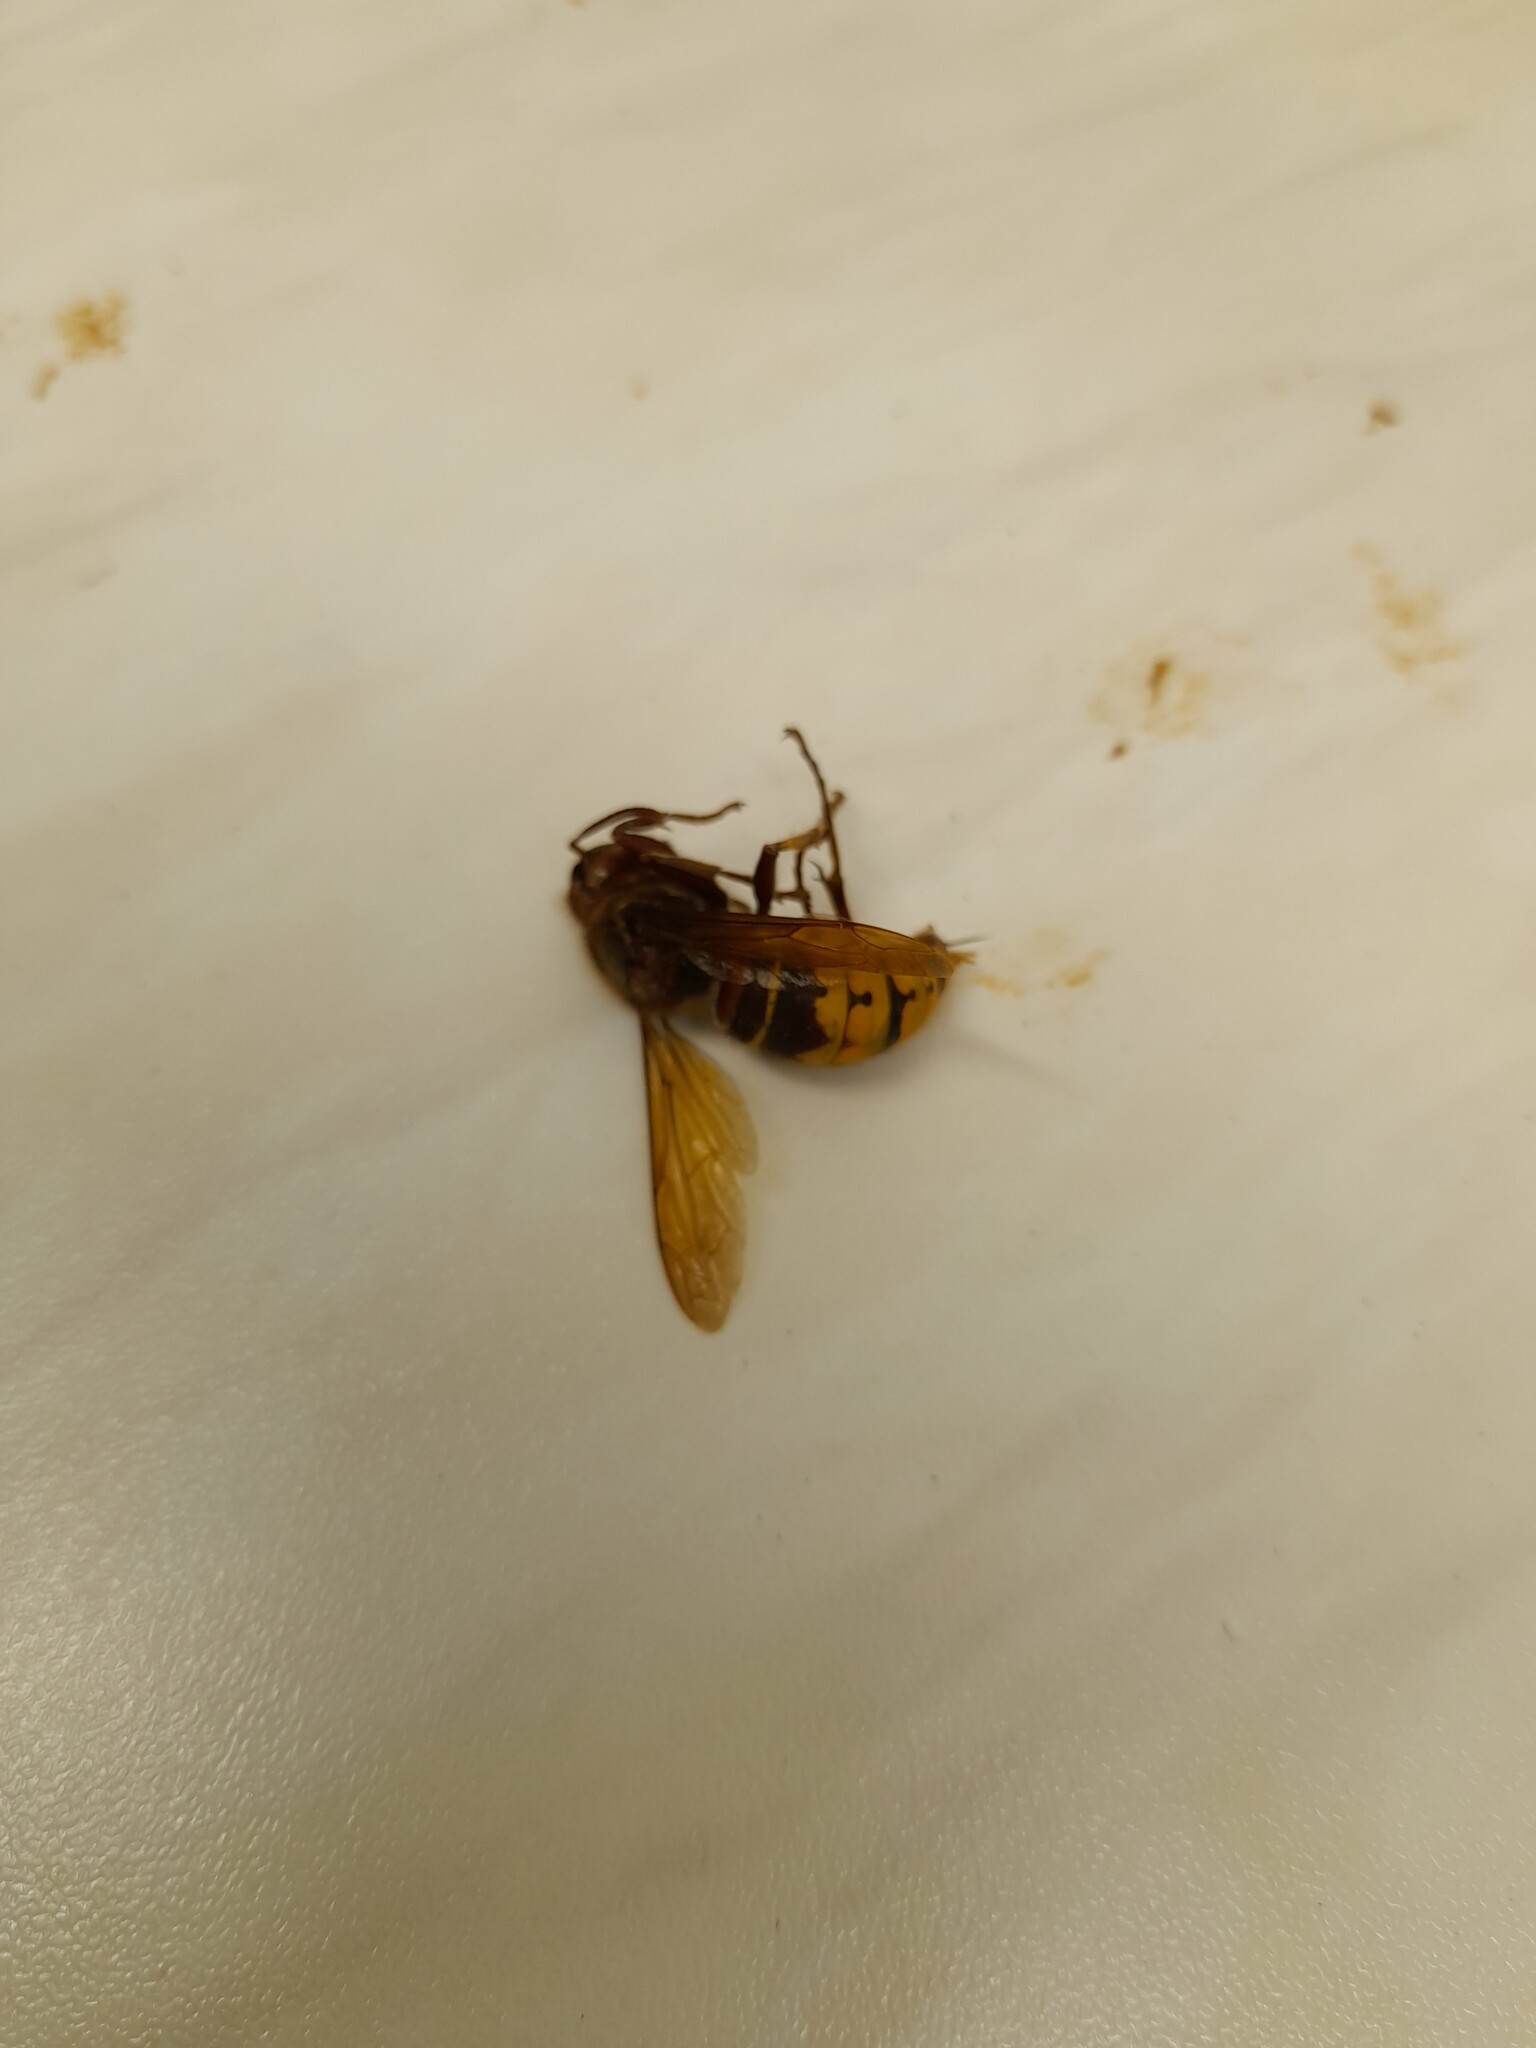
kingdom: Animalia
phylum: Arthropoda
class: Insecta
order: Hymenoptera
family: Vespidae
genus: Vespa
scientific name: Vespa crabro
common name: Hornet
